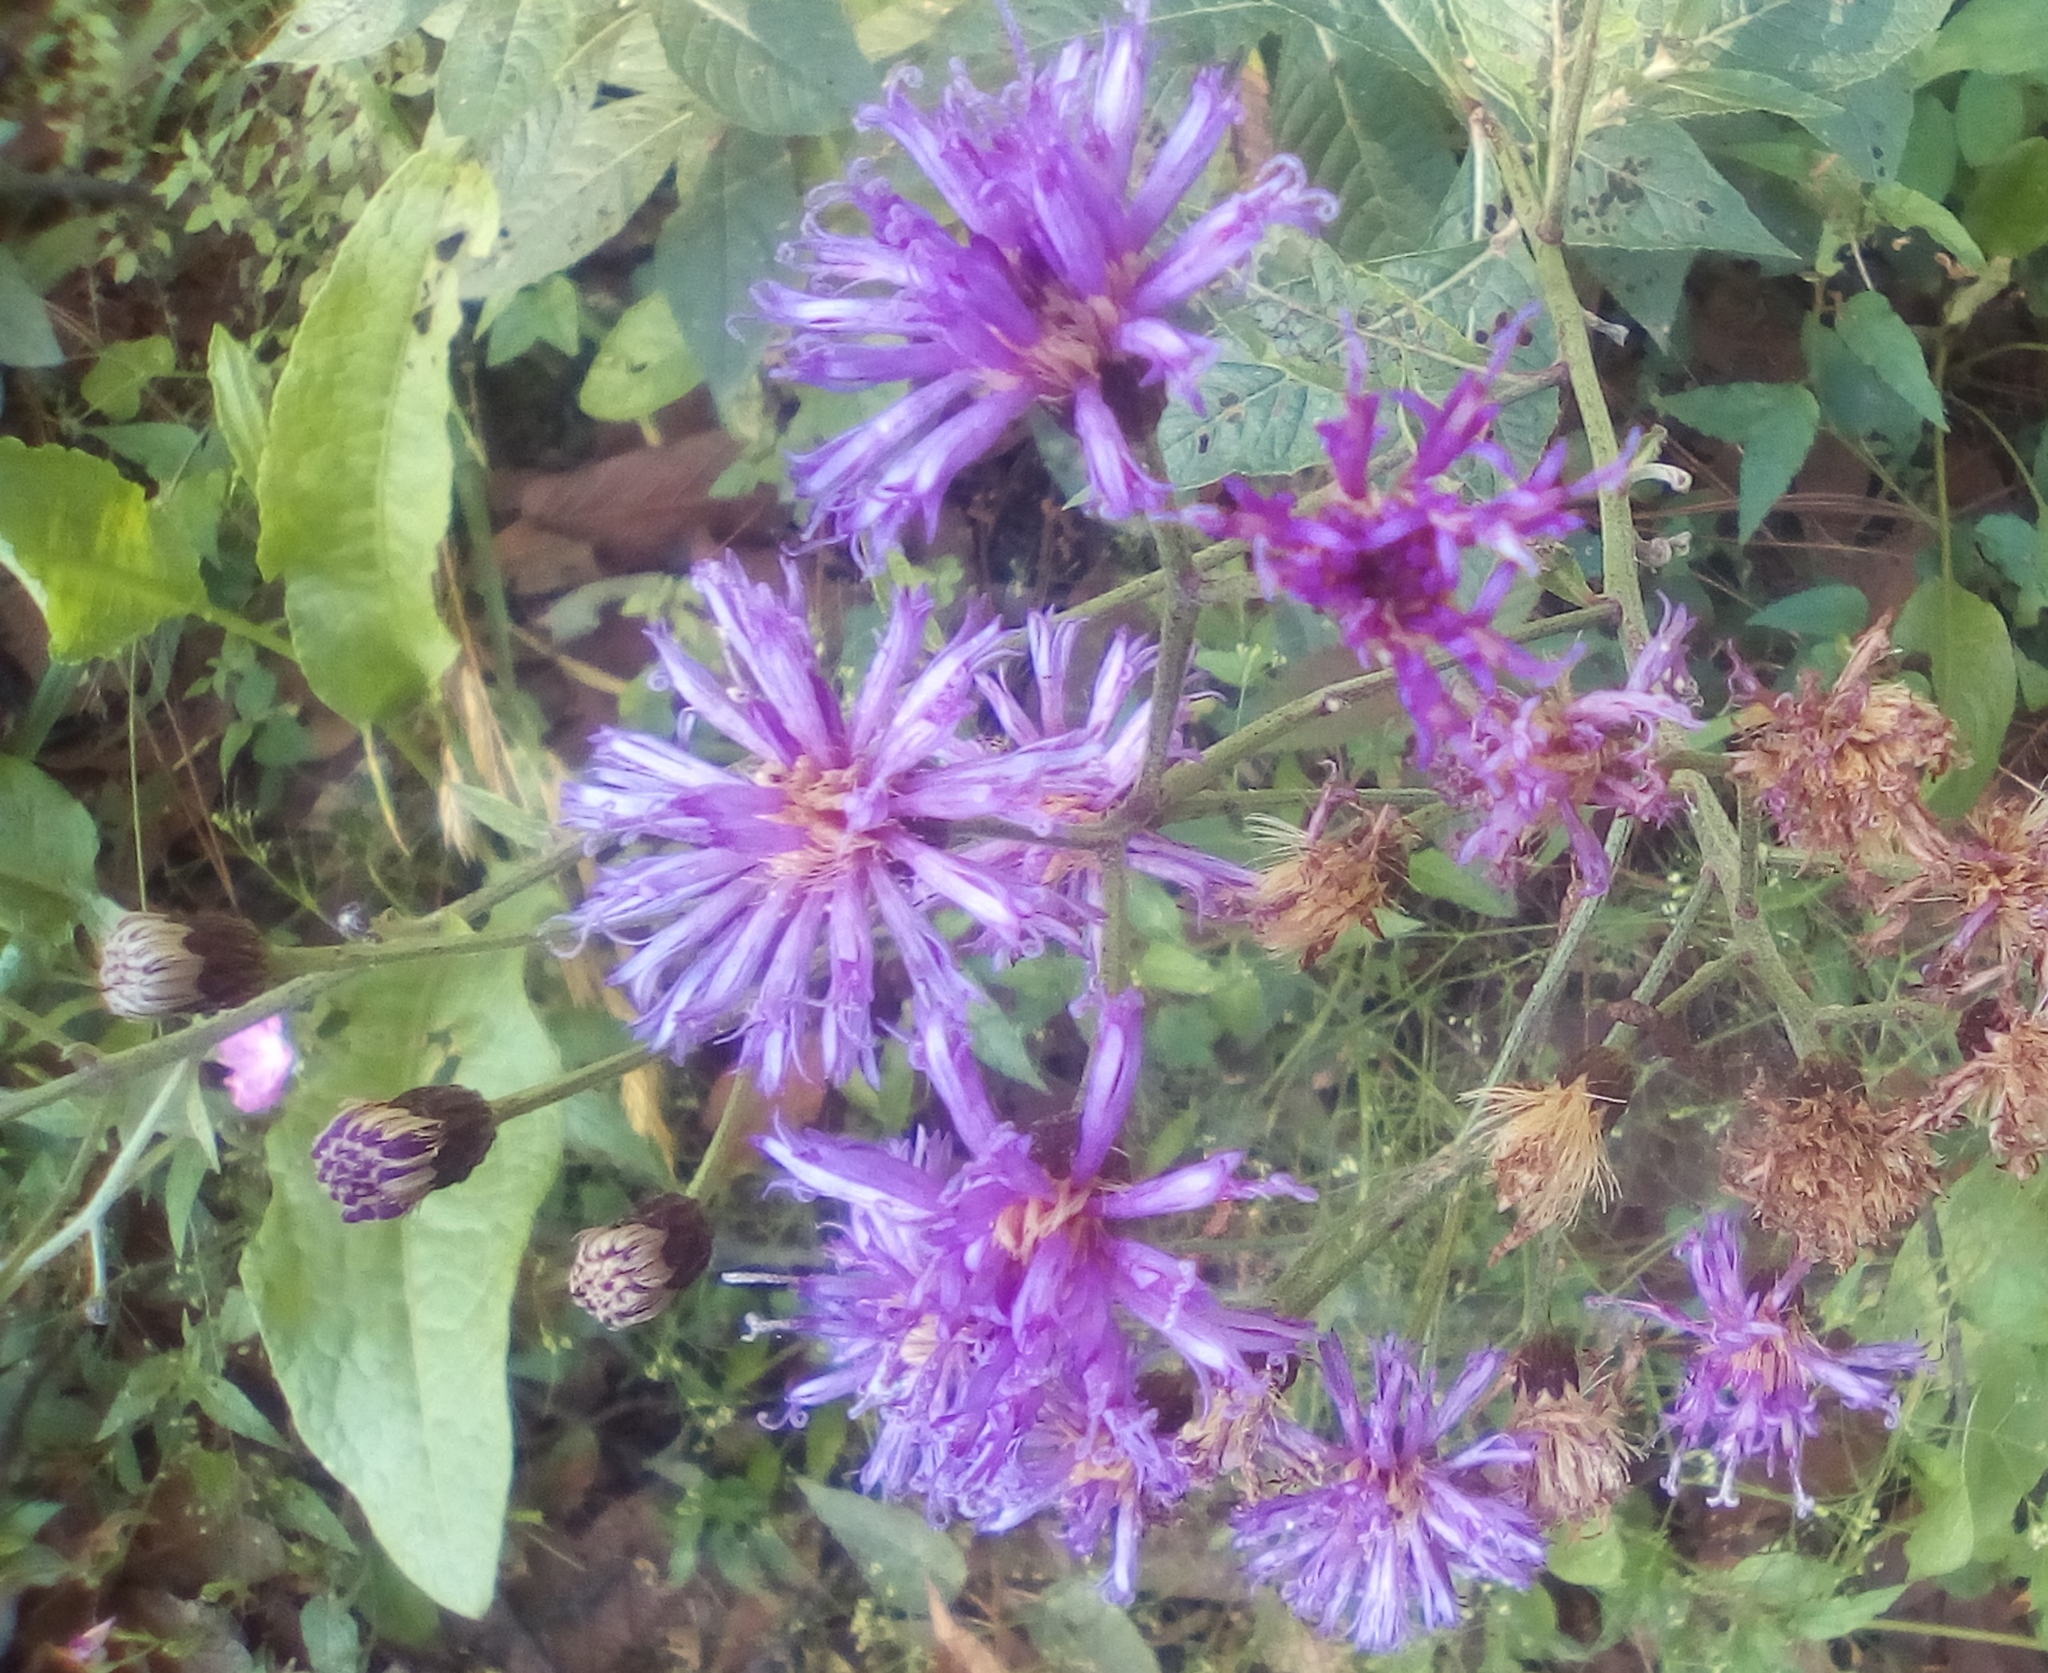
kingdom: Plantae
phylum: Tracheophyta
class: Magnoliopsida
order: Asterales
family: Asteraceae
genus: Vernonia
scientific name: Vernonia greggii
